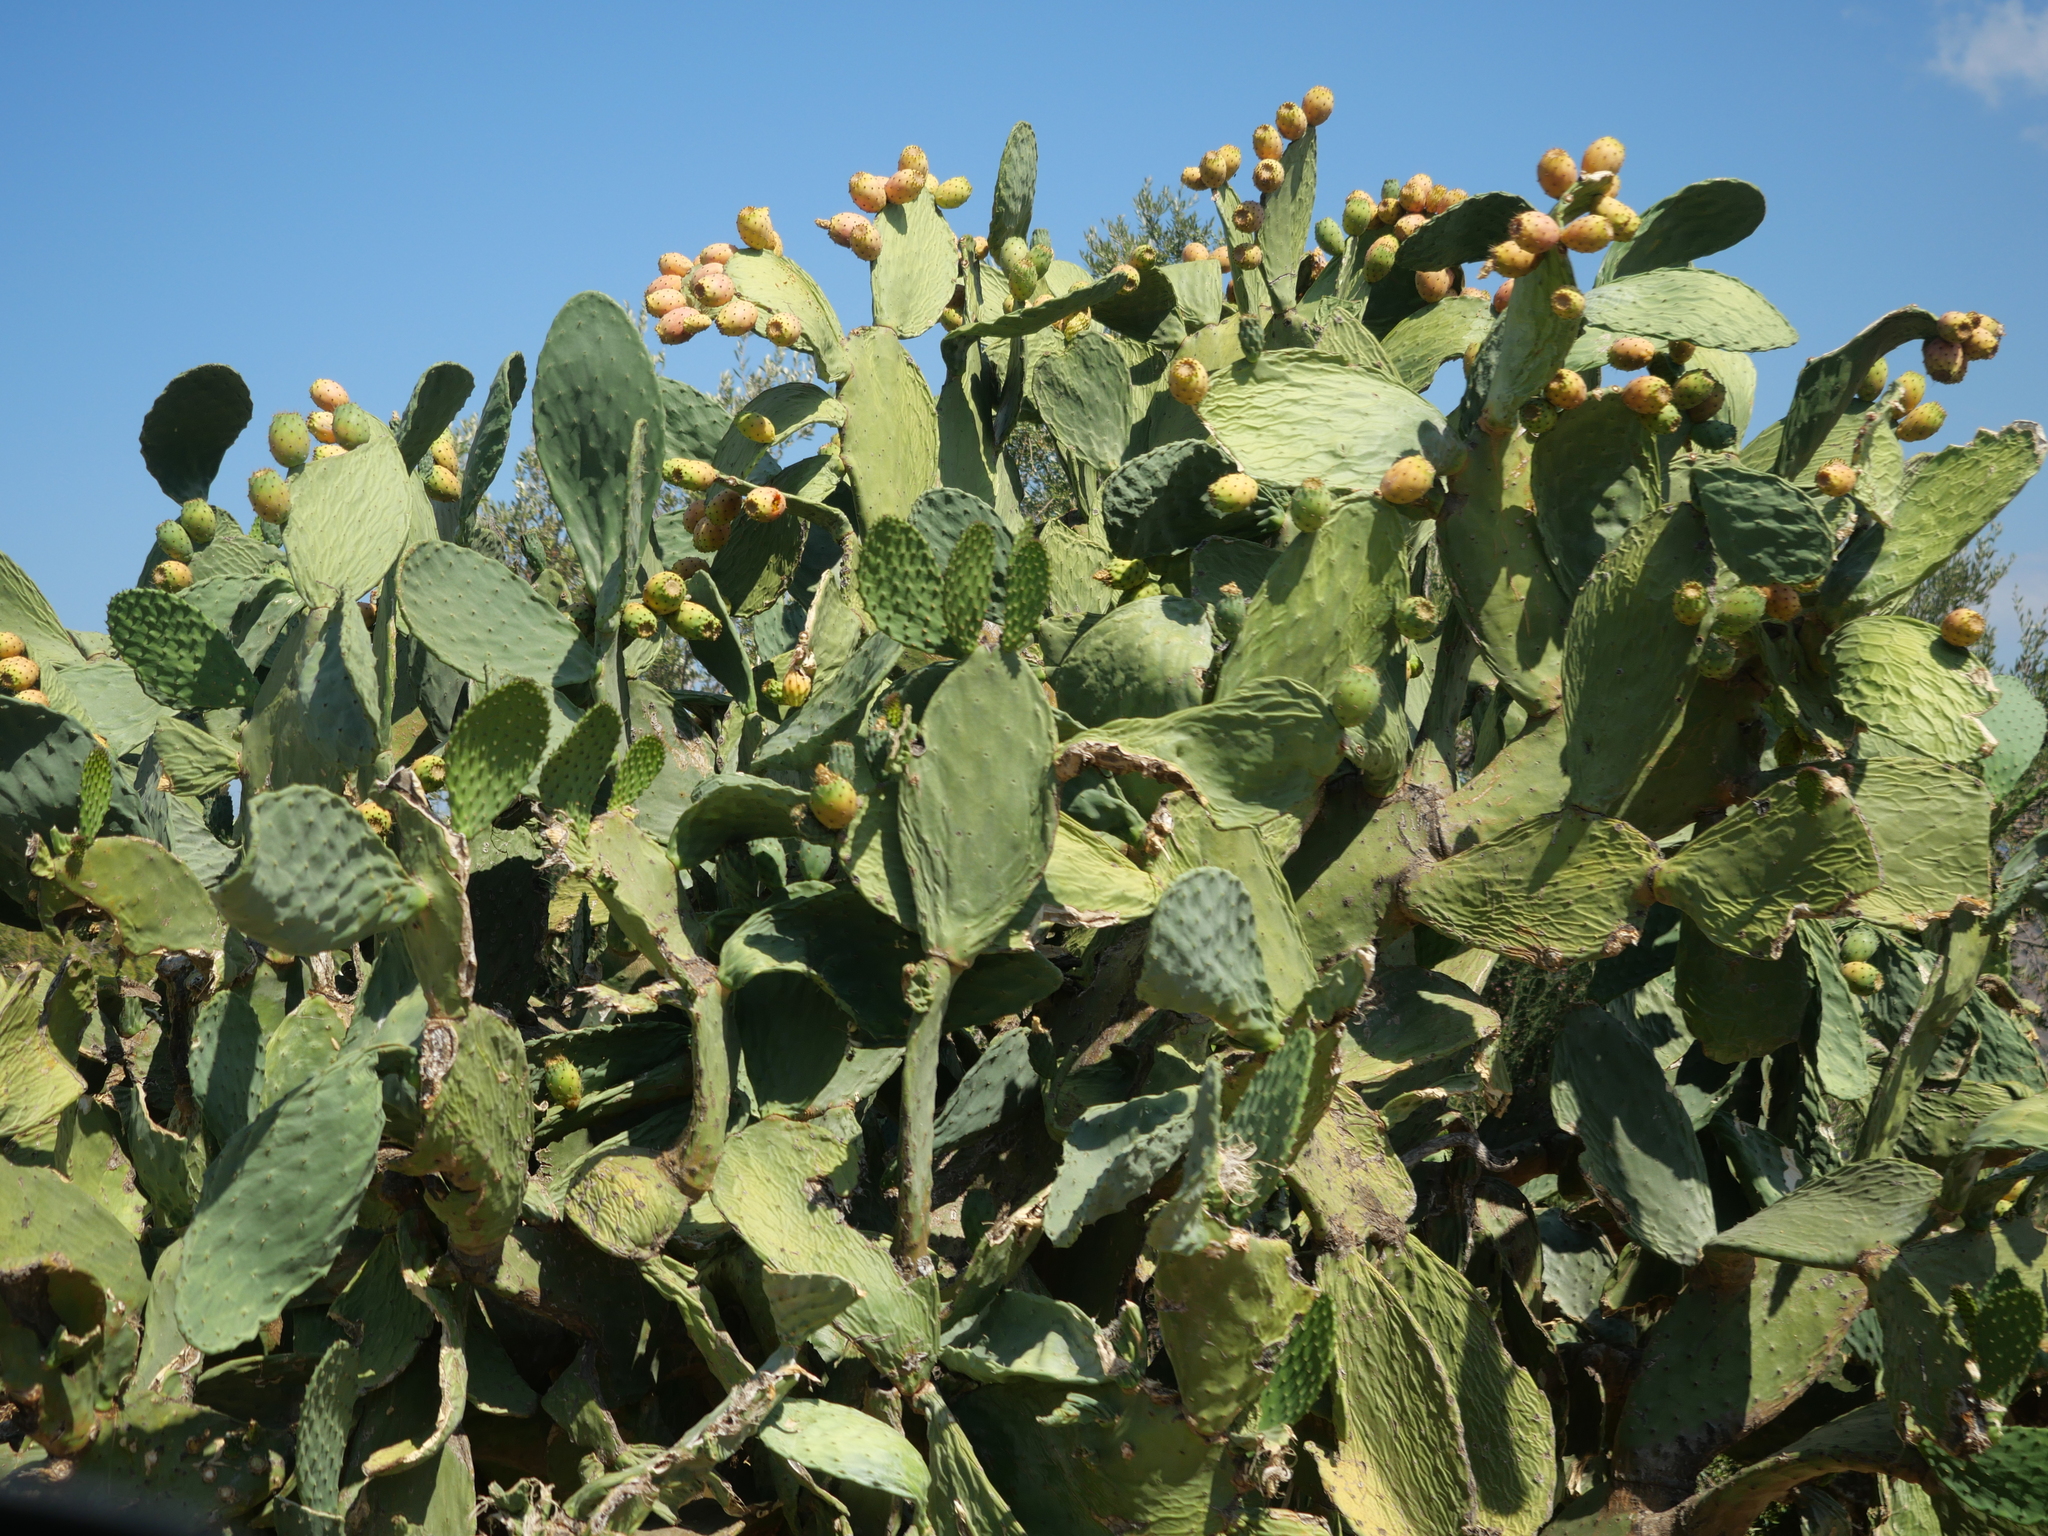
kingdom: Plantae
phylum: Tracheophyta
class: Magnoliopsida
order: Caryophyllales
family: Cactaceae
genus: Opuntia
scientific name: Opuntia ficus-indica
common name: Barbary fig
